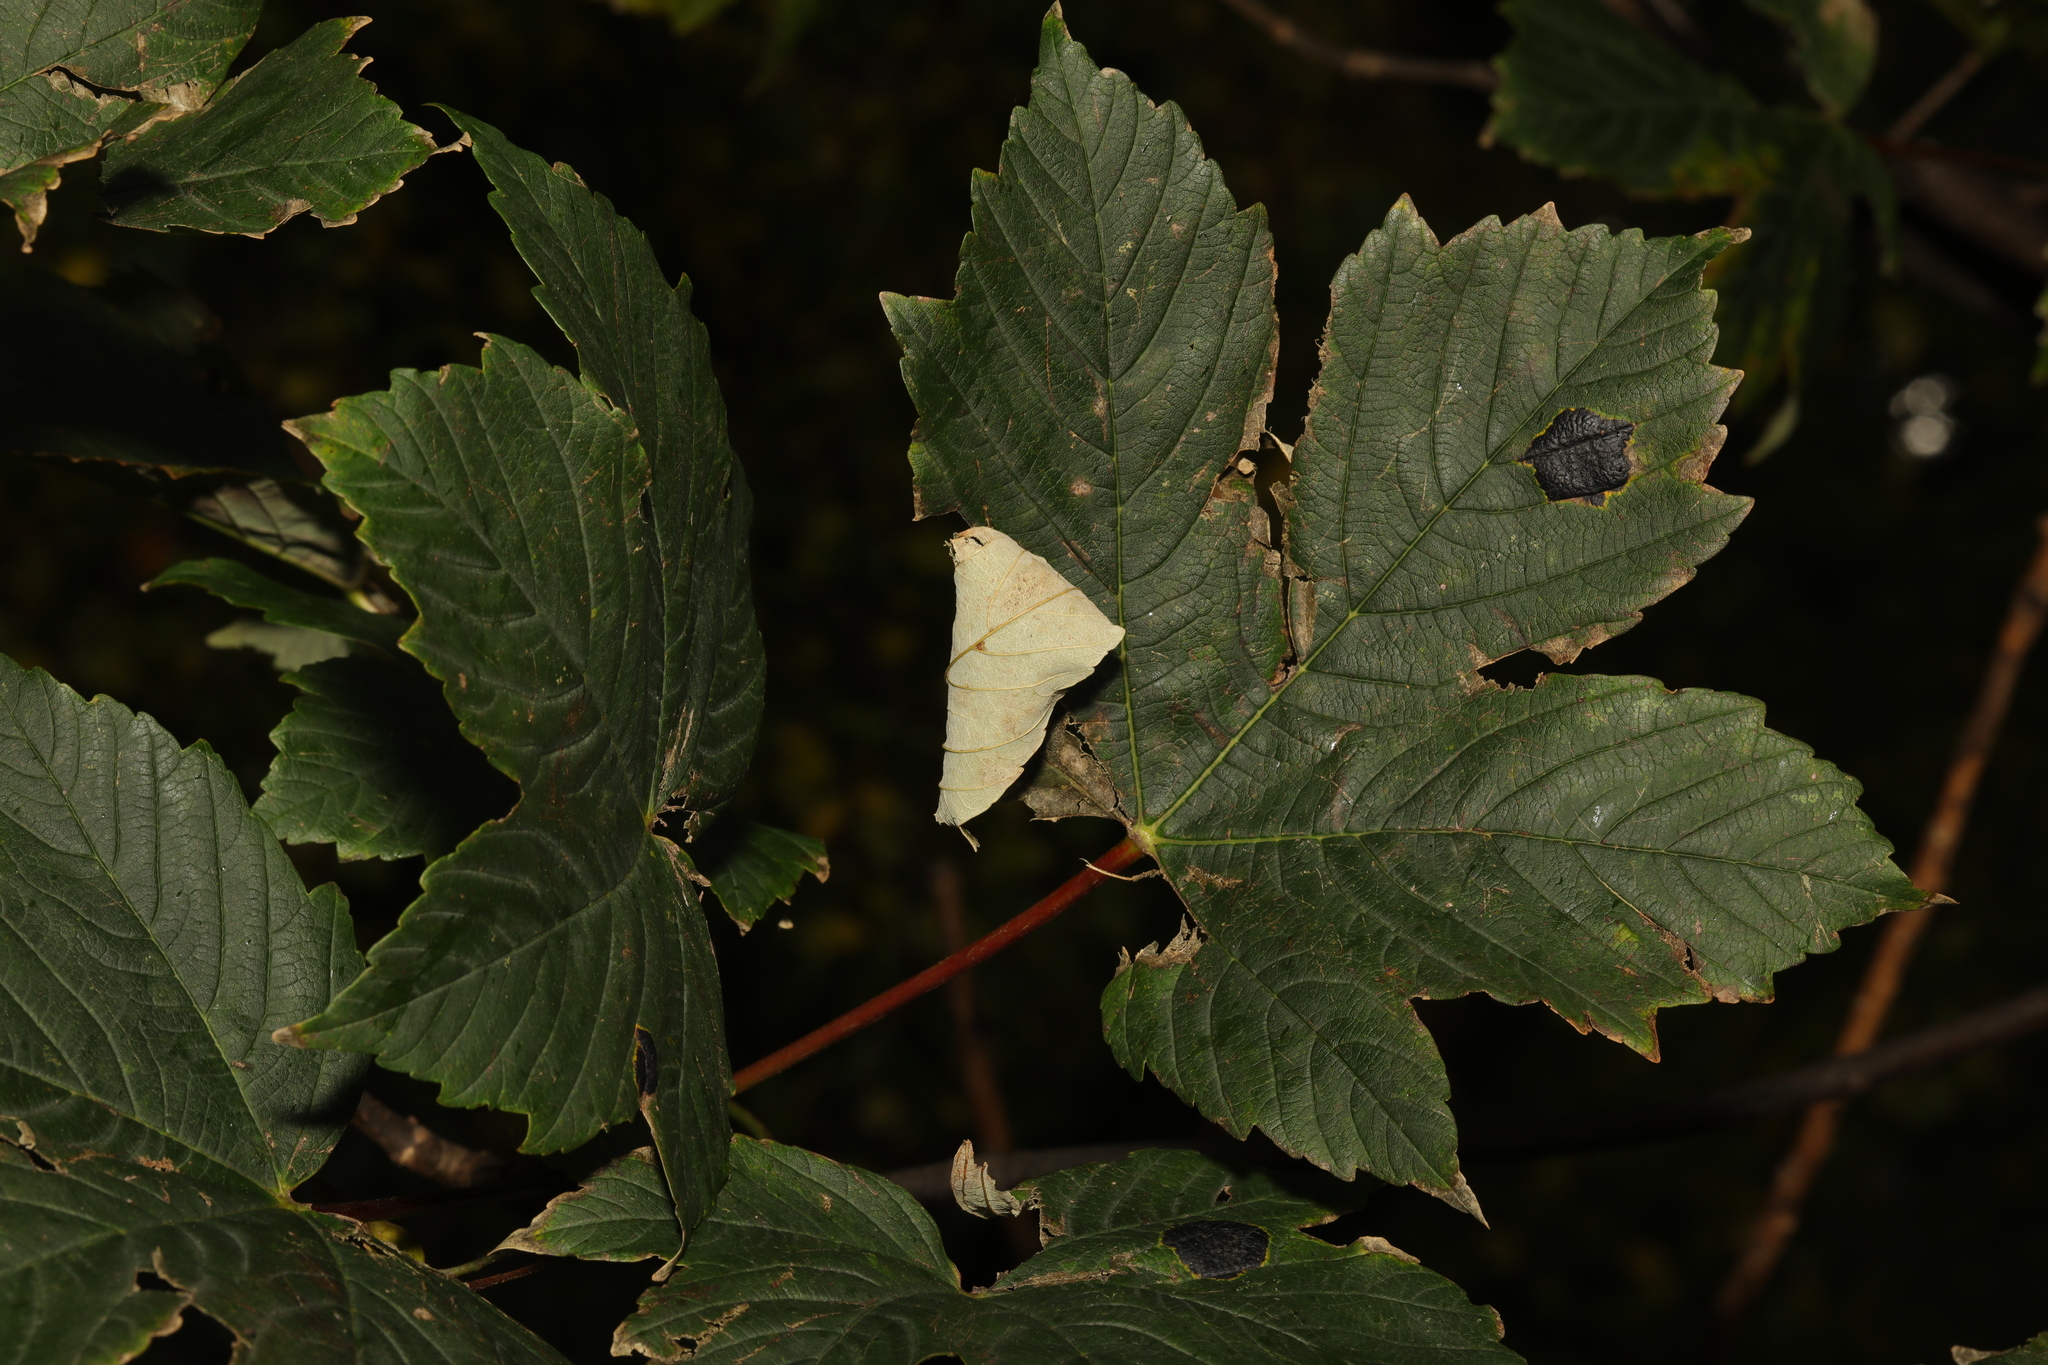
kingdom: Plantae
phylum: Tracheophyta
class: Magnoliopsida
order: Sapindales
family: Sapindaceae
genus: Acer
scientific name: Acer pseudoplatanus
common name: Sycamore
